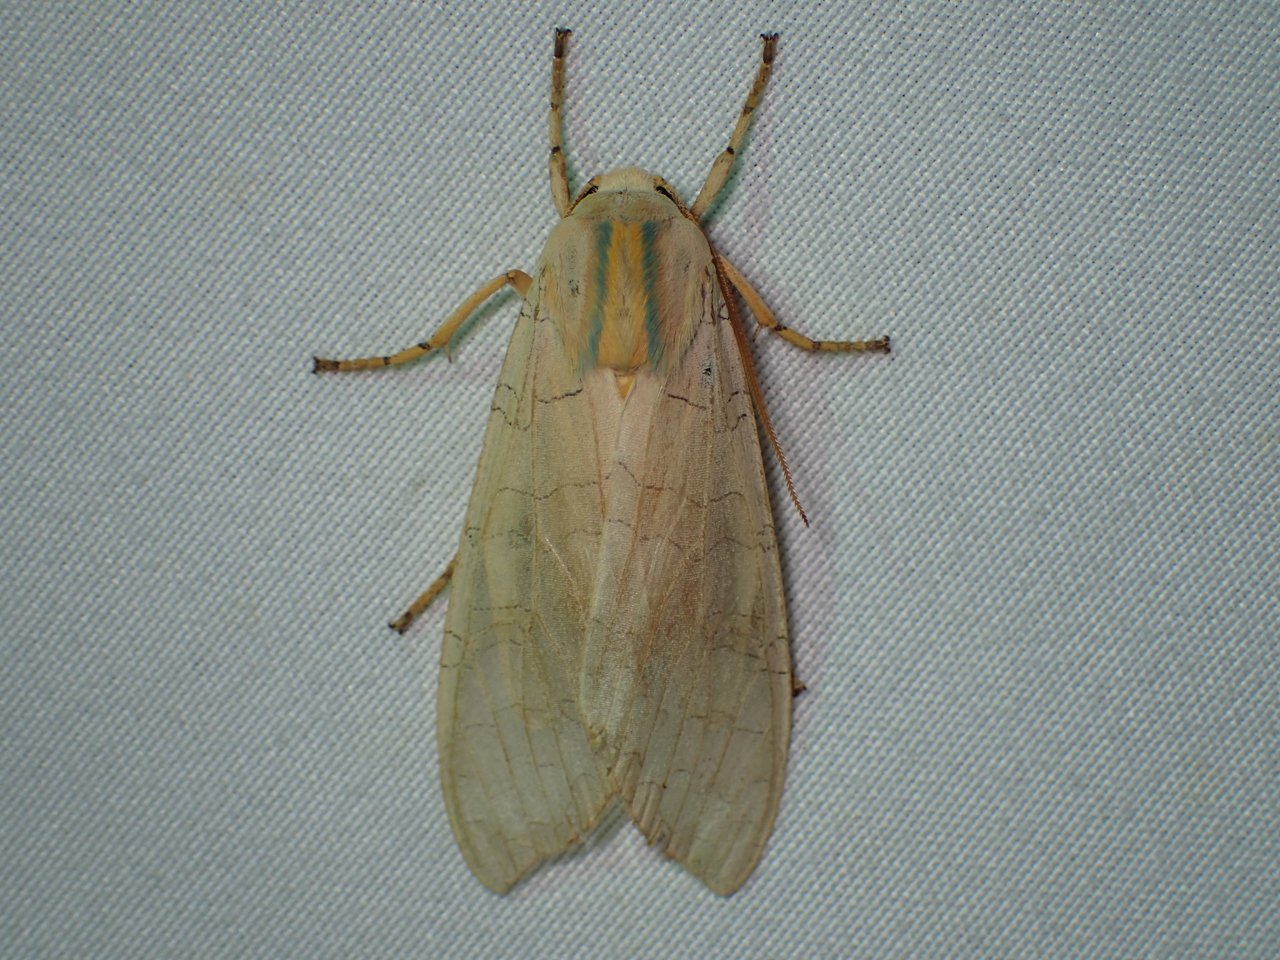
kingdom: Animalia
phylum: Arthropoda
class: Insecta
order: Lepidoptera
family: Erebidae
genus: Halysidota
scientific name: Halysidota
